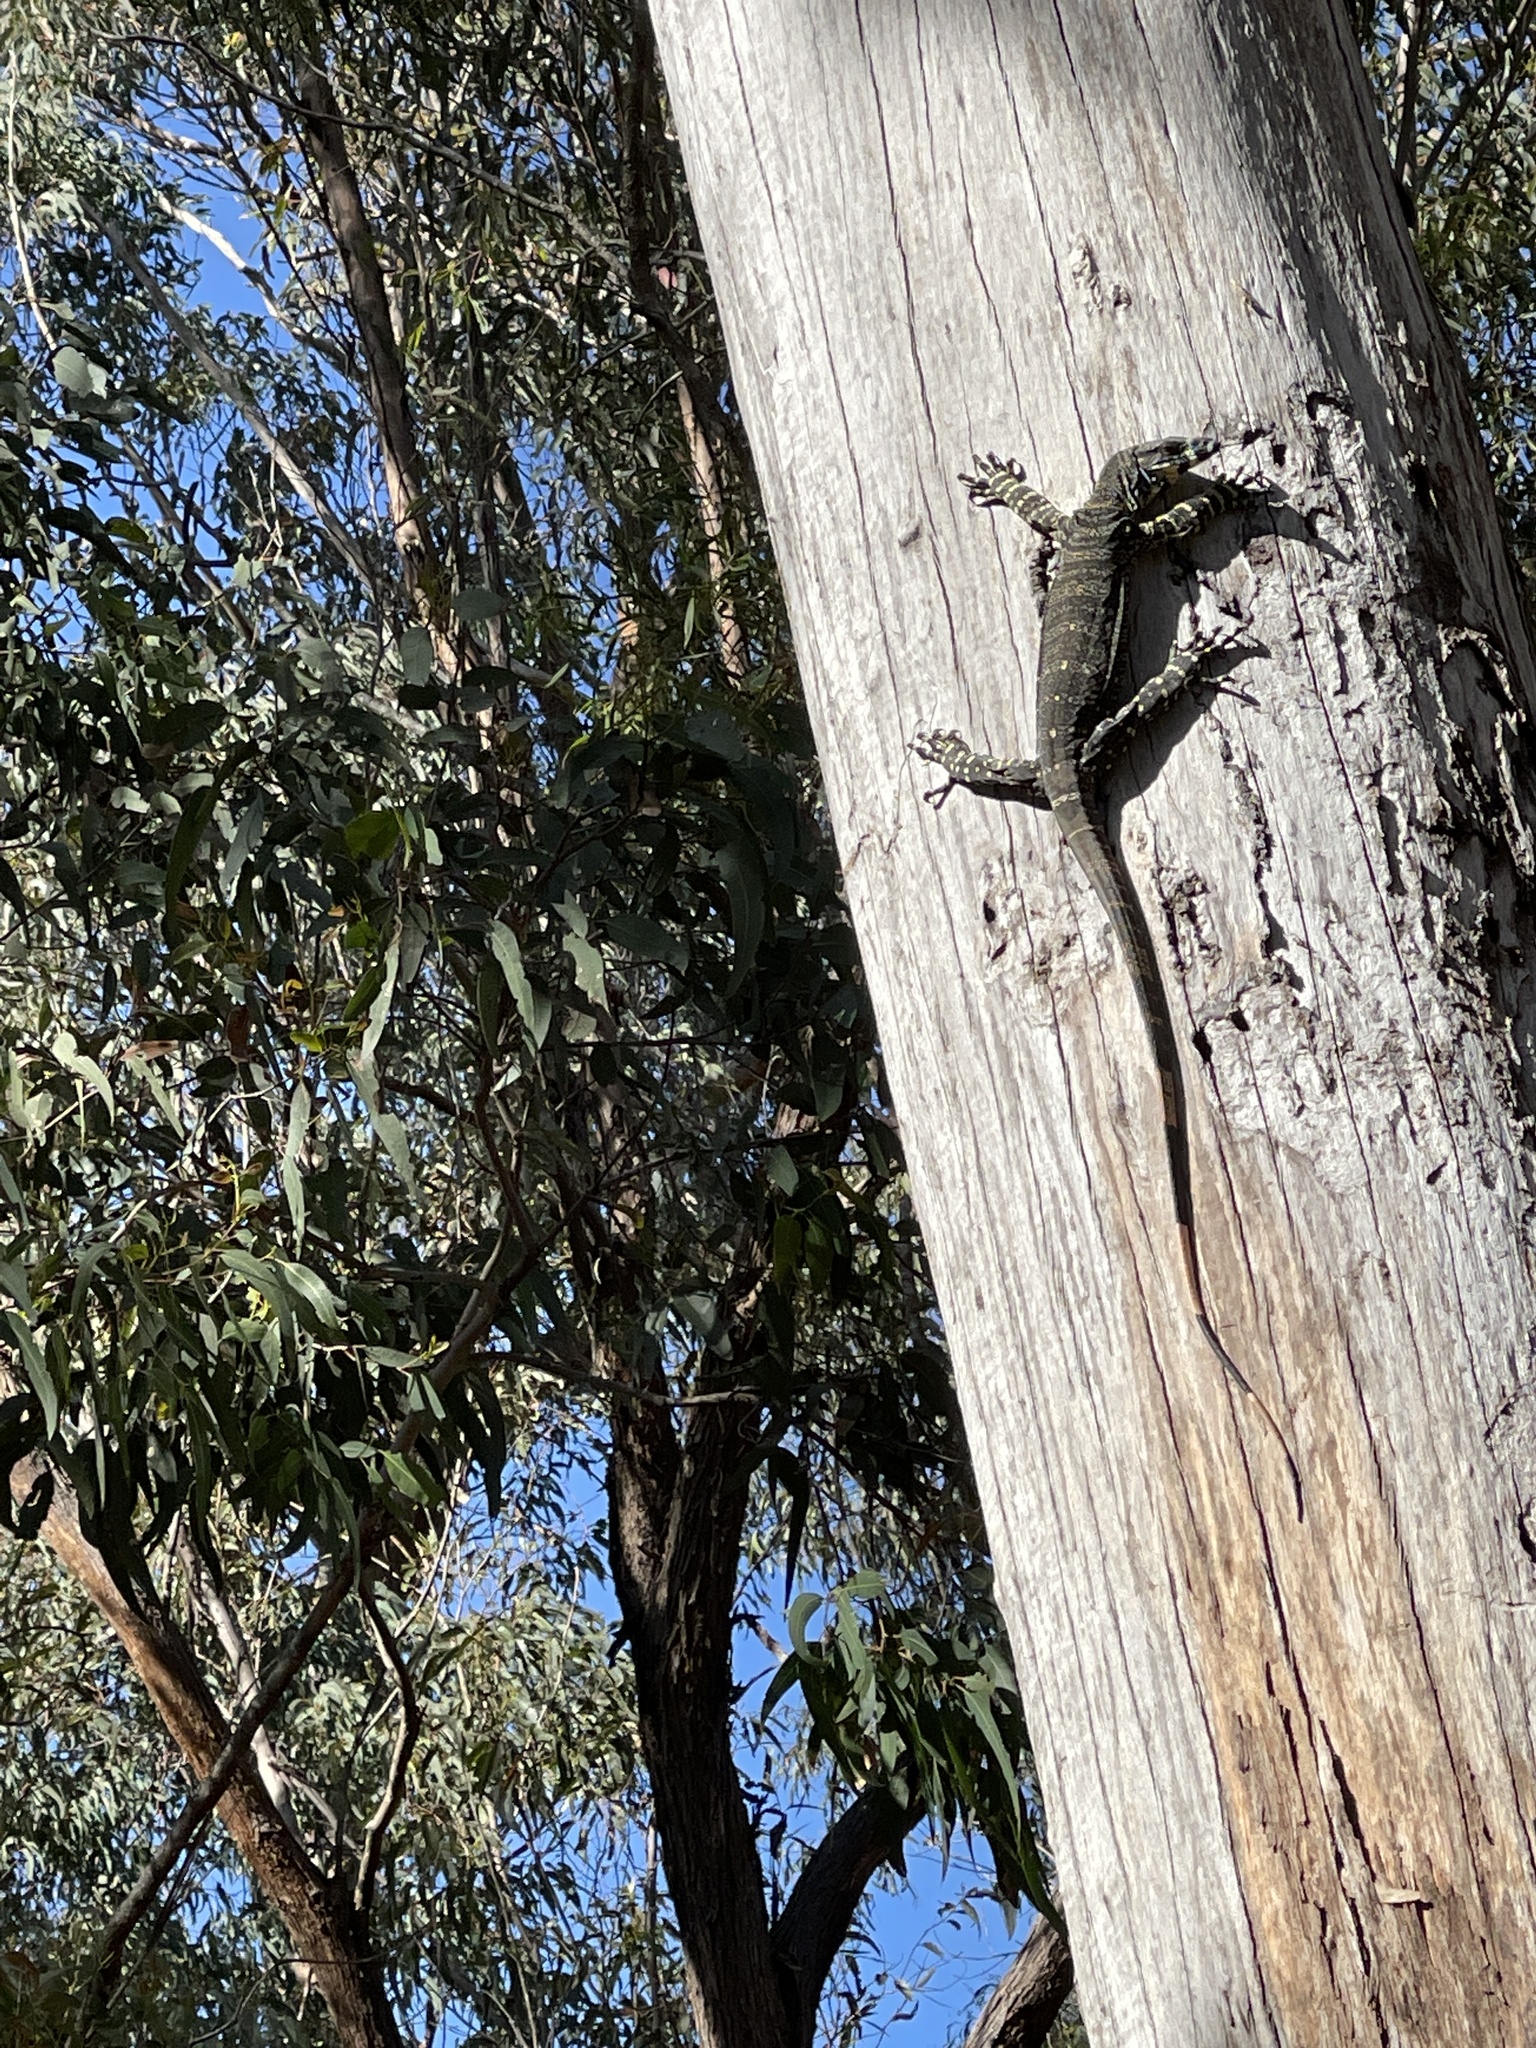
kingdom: Animalia
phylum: Chordata
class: Squamata
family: Varanidae
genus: Varanus
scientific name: Varanus varius
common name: Lace monitor
